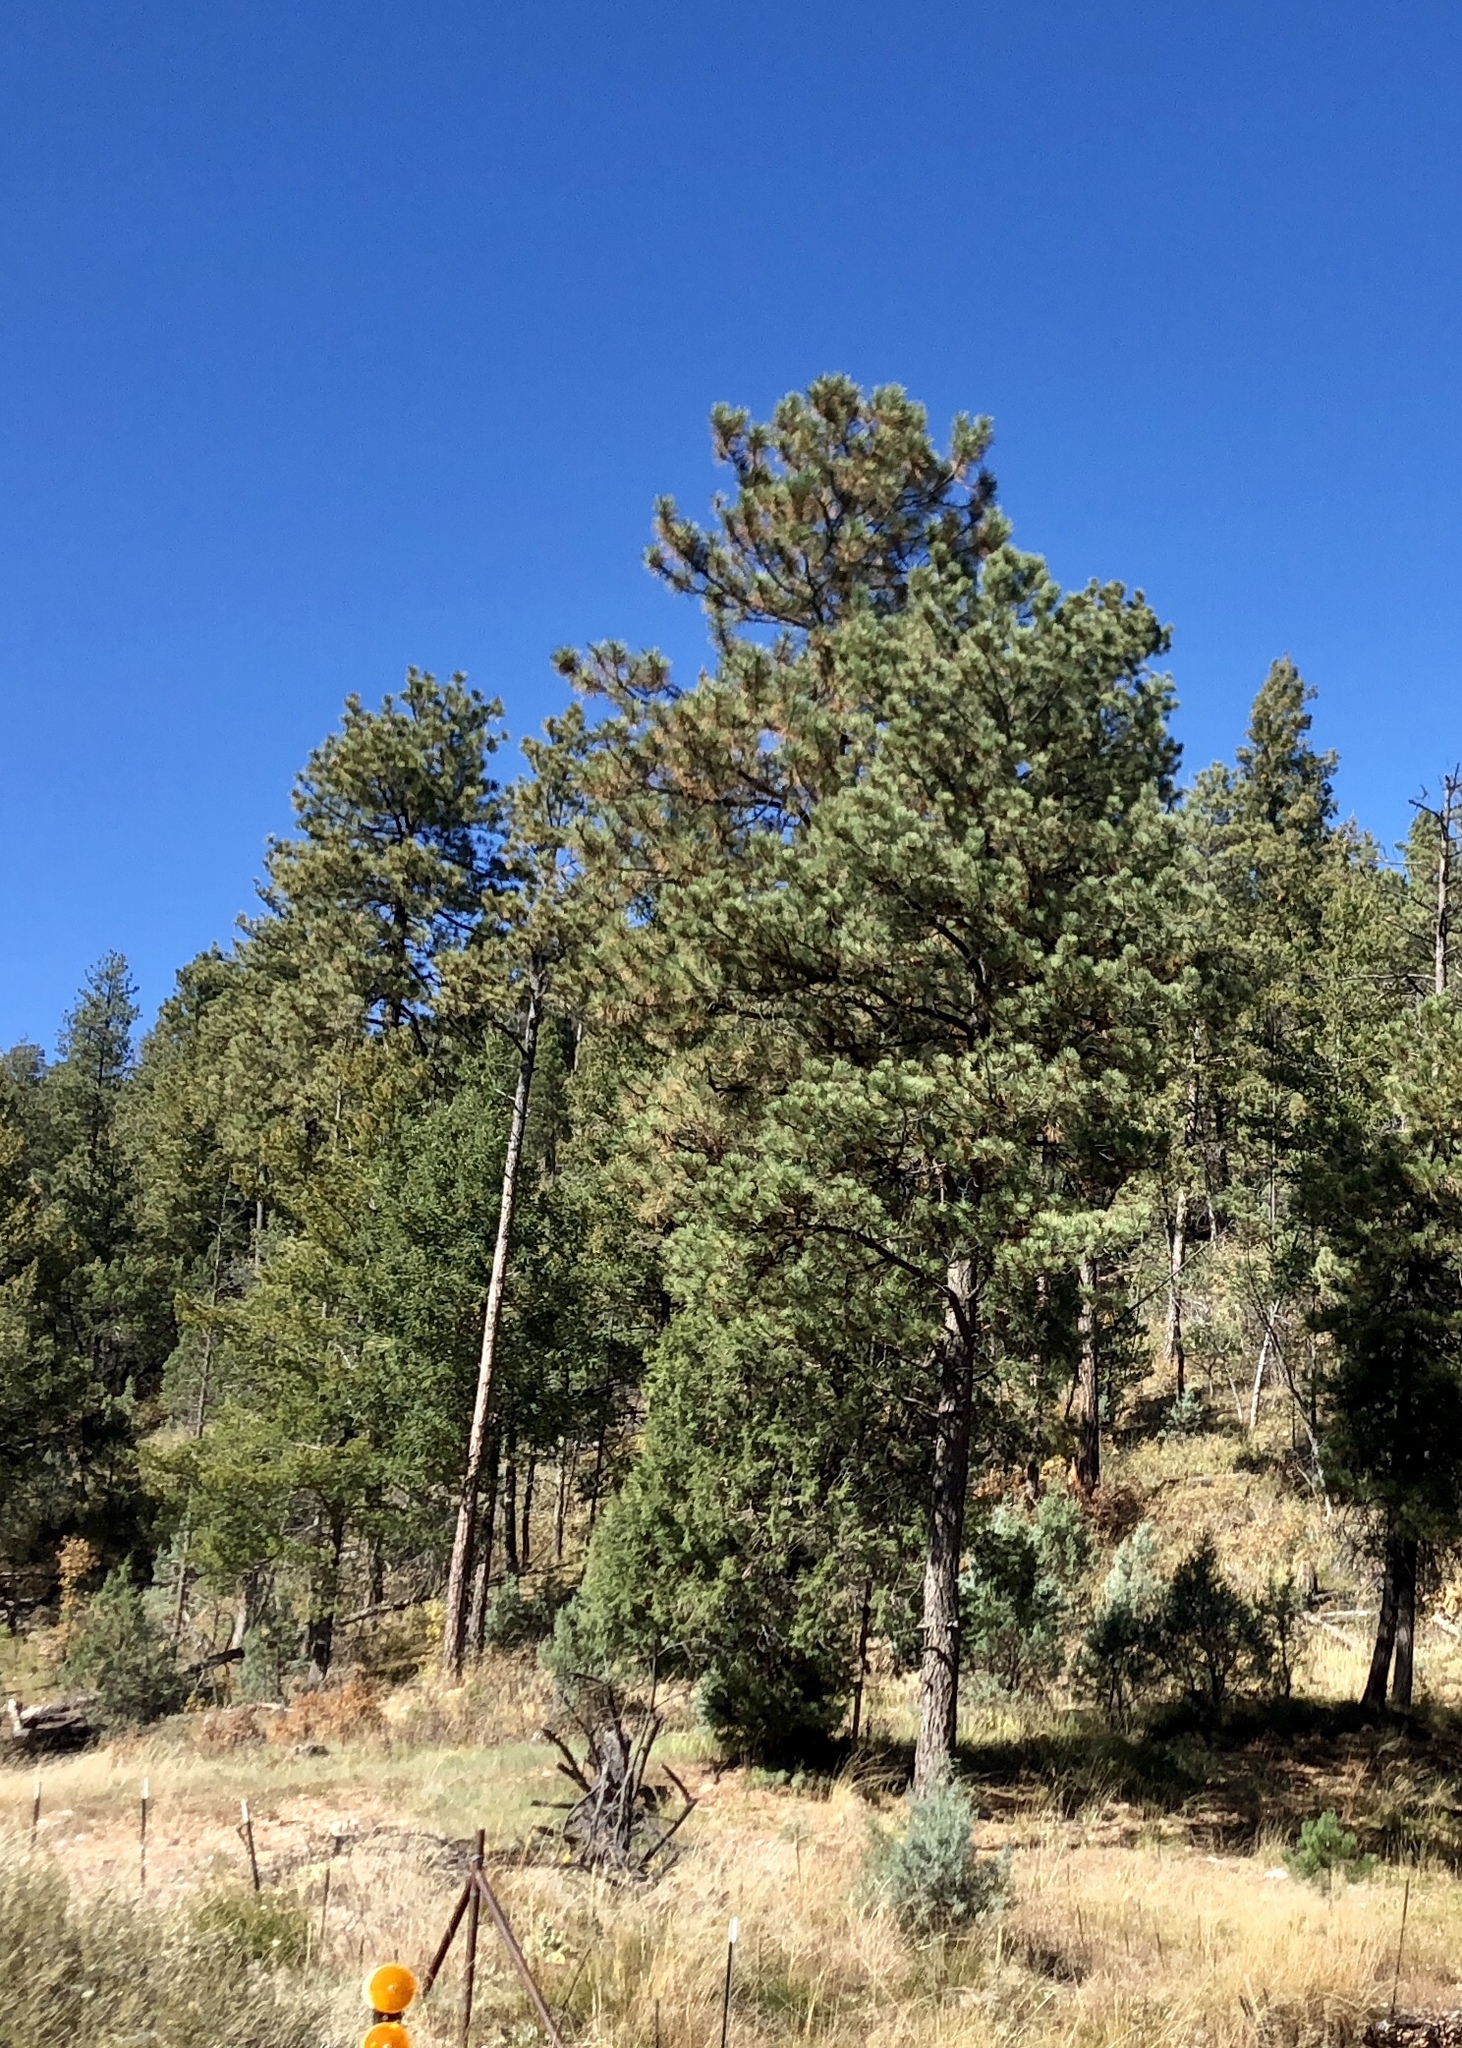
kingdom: Plantae
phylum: Tracheophyta
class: Pinopsida
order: Pinales
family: Pinaceae
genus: Pinus
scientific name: Pinus ponderosa
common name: Western yellow-pine
